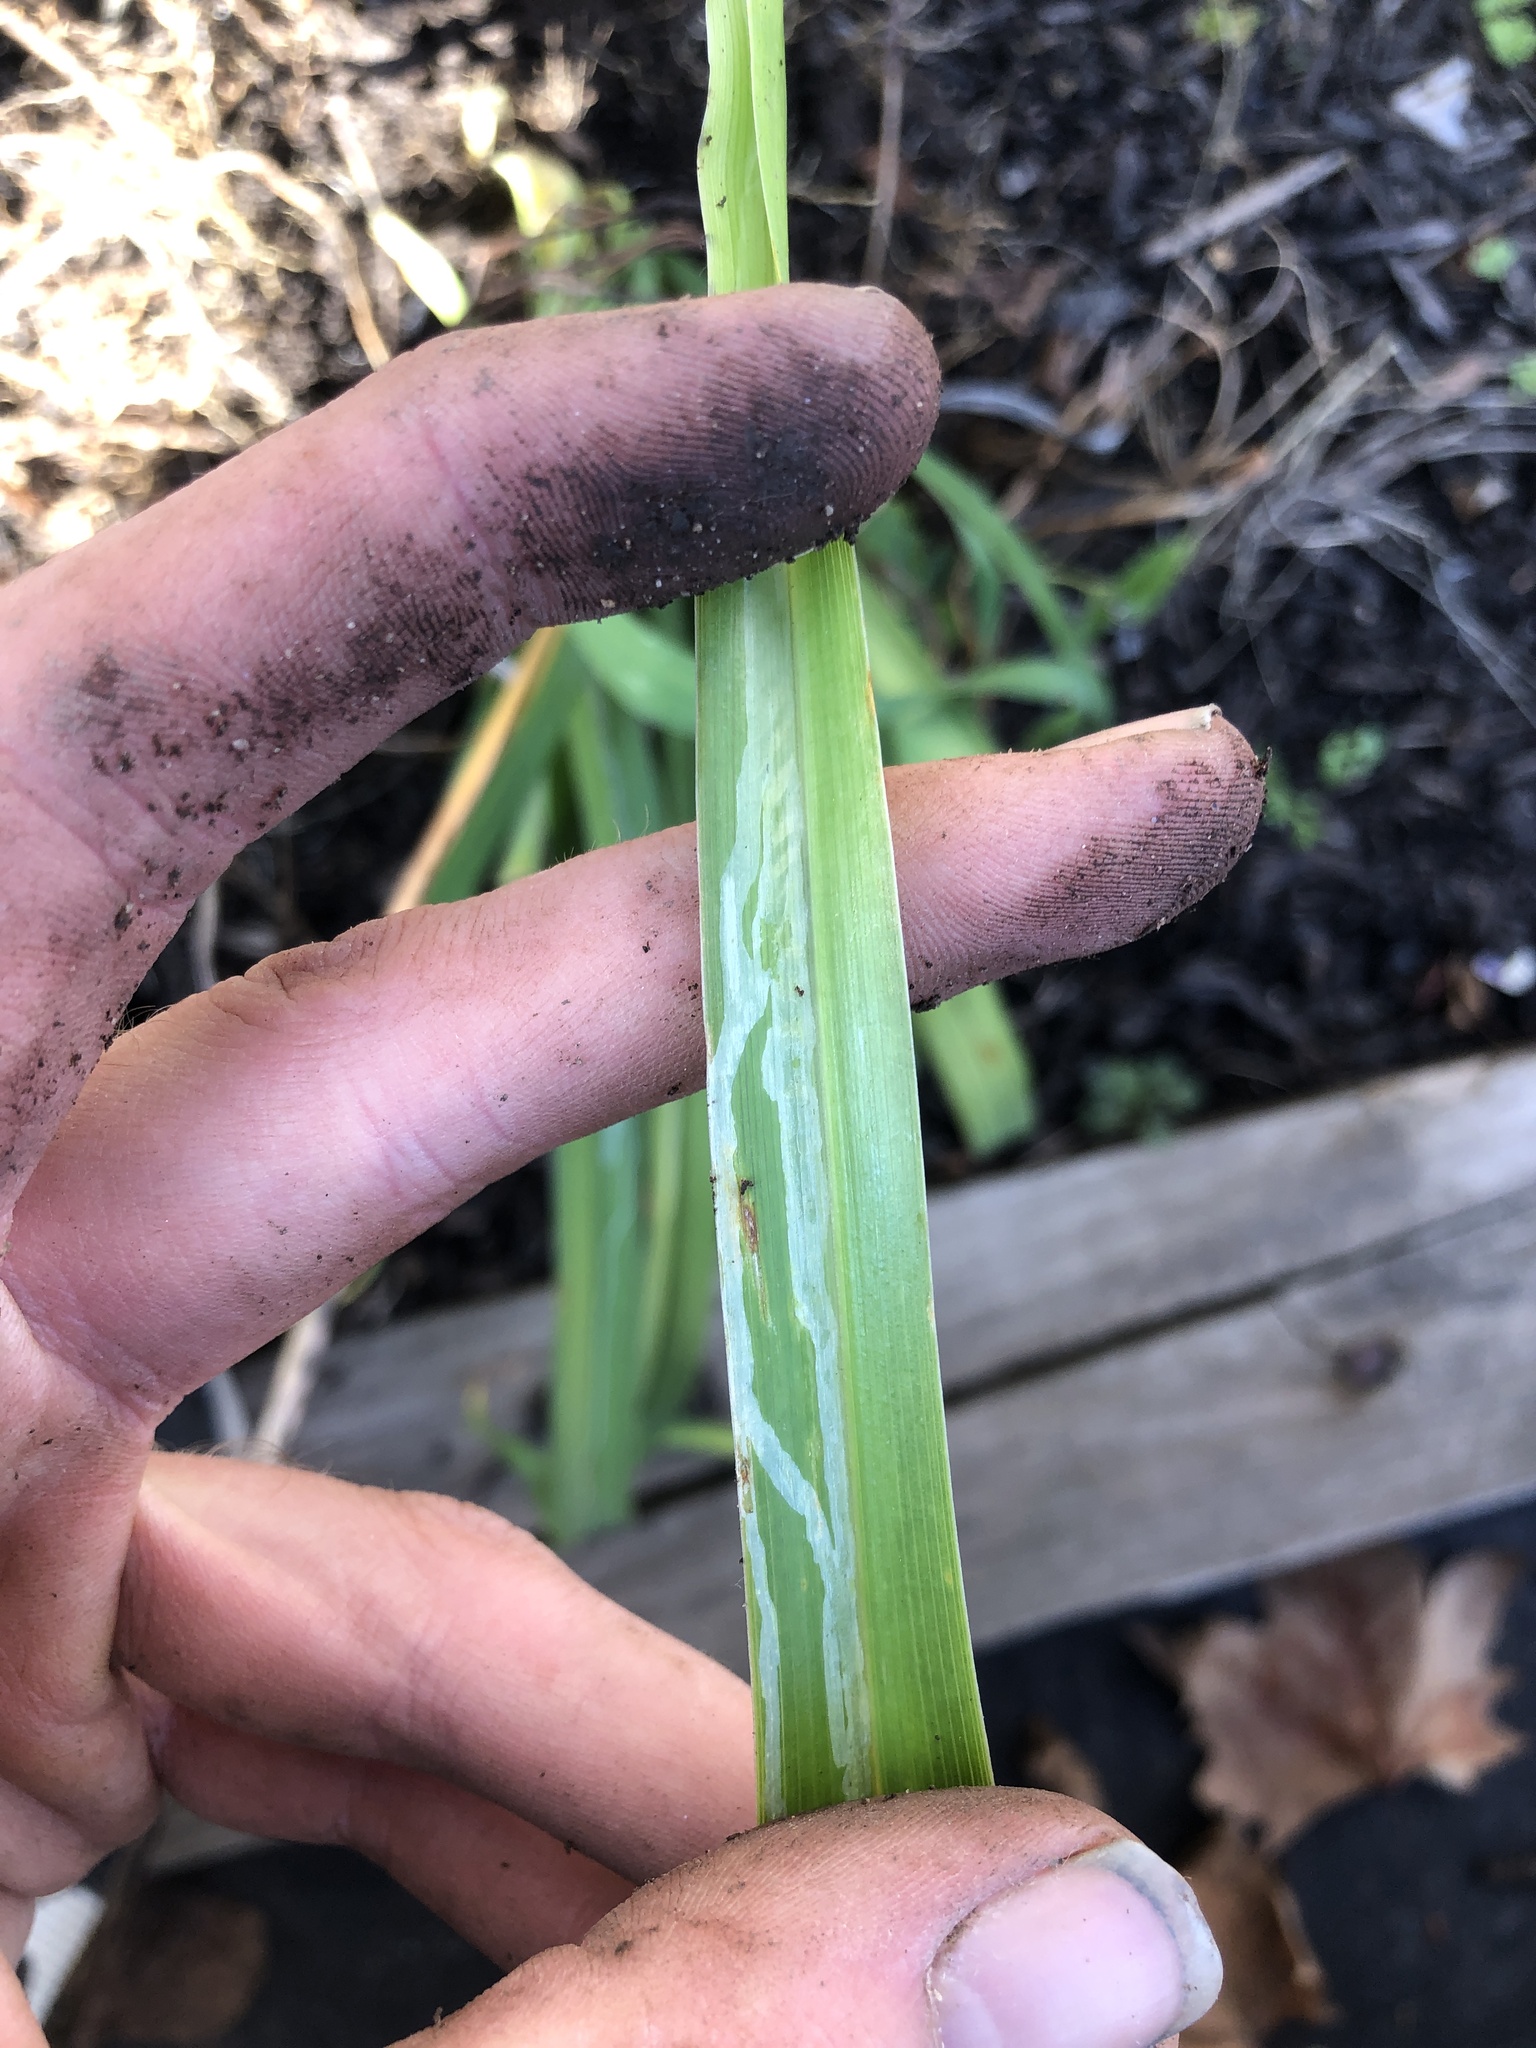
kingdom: Animalia
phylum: Arthropoda
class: Insecta
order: Diptera
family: Agromyzidae
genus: Ophiomyia
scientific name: Ophiomyia kwansonis
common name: Daylily leafminer
